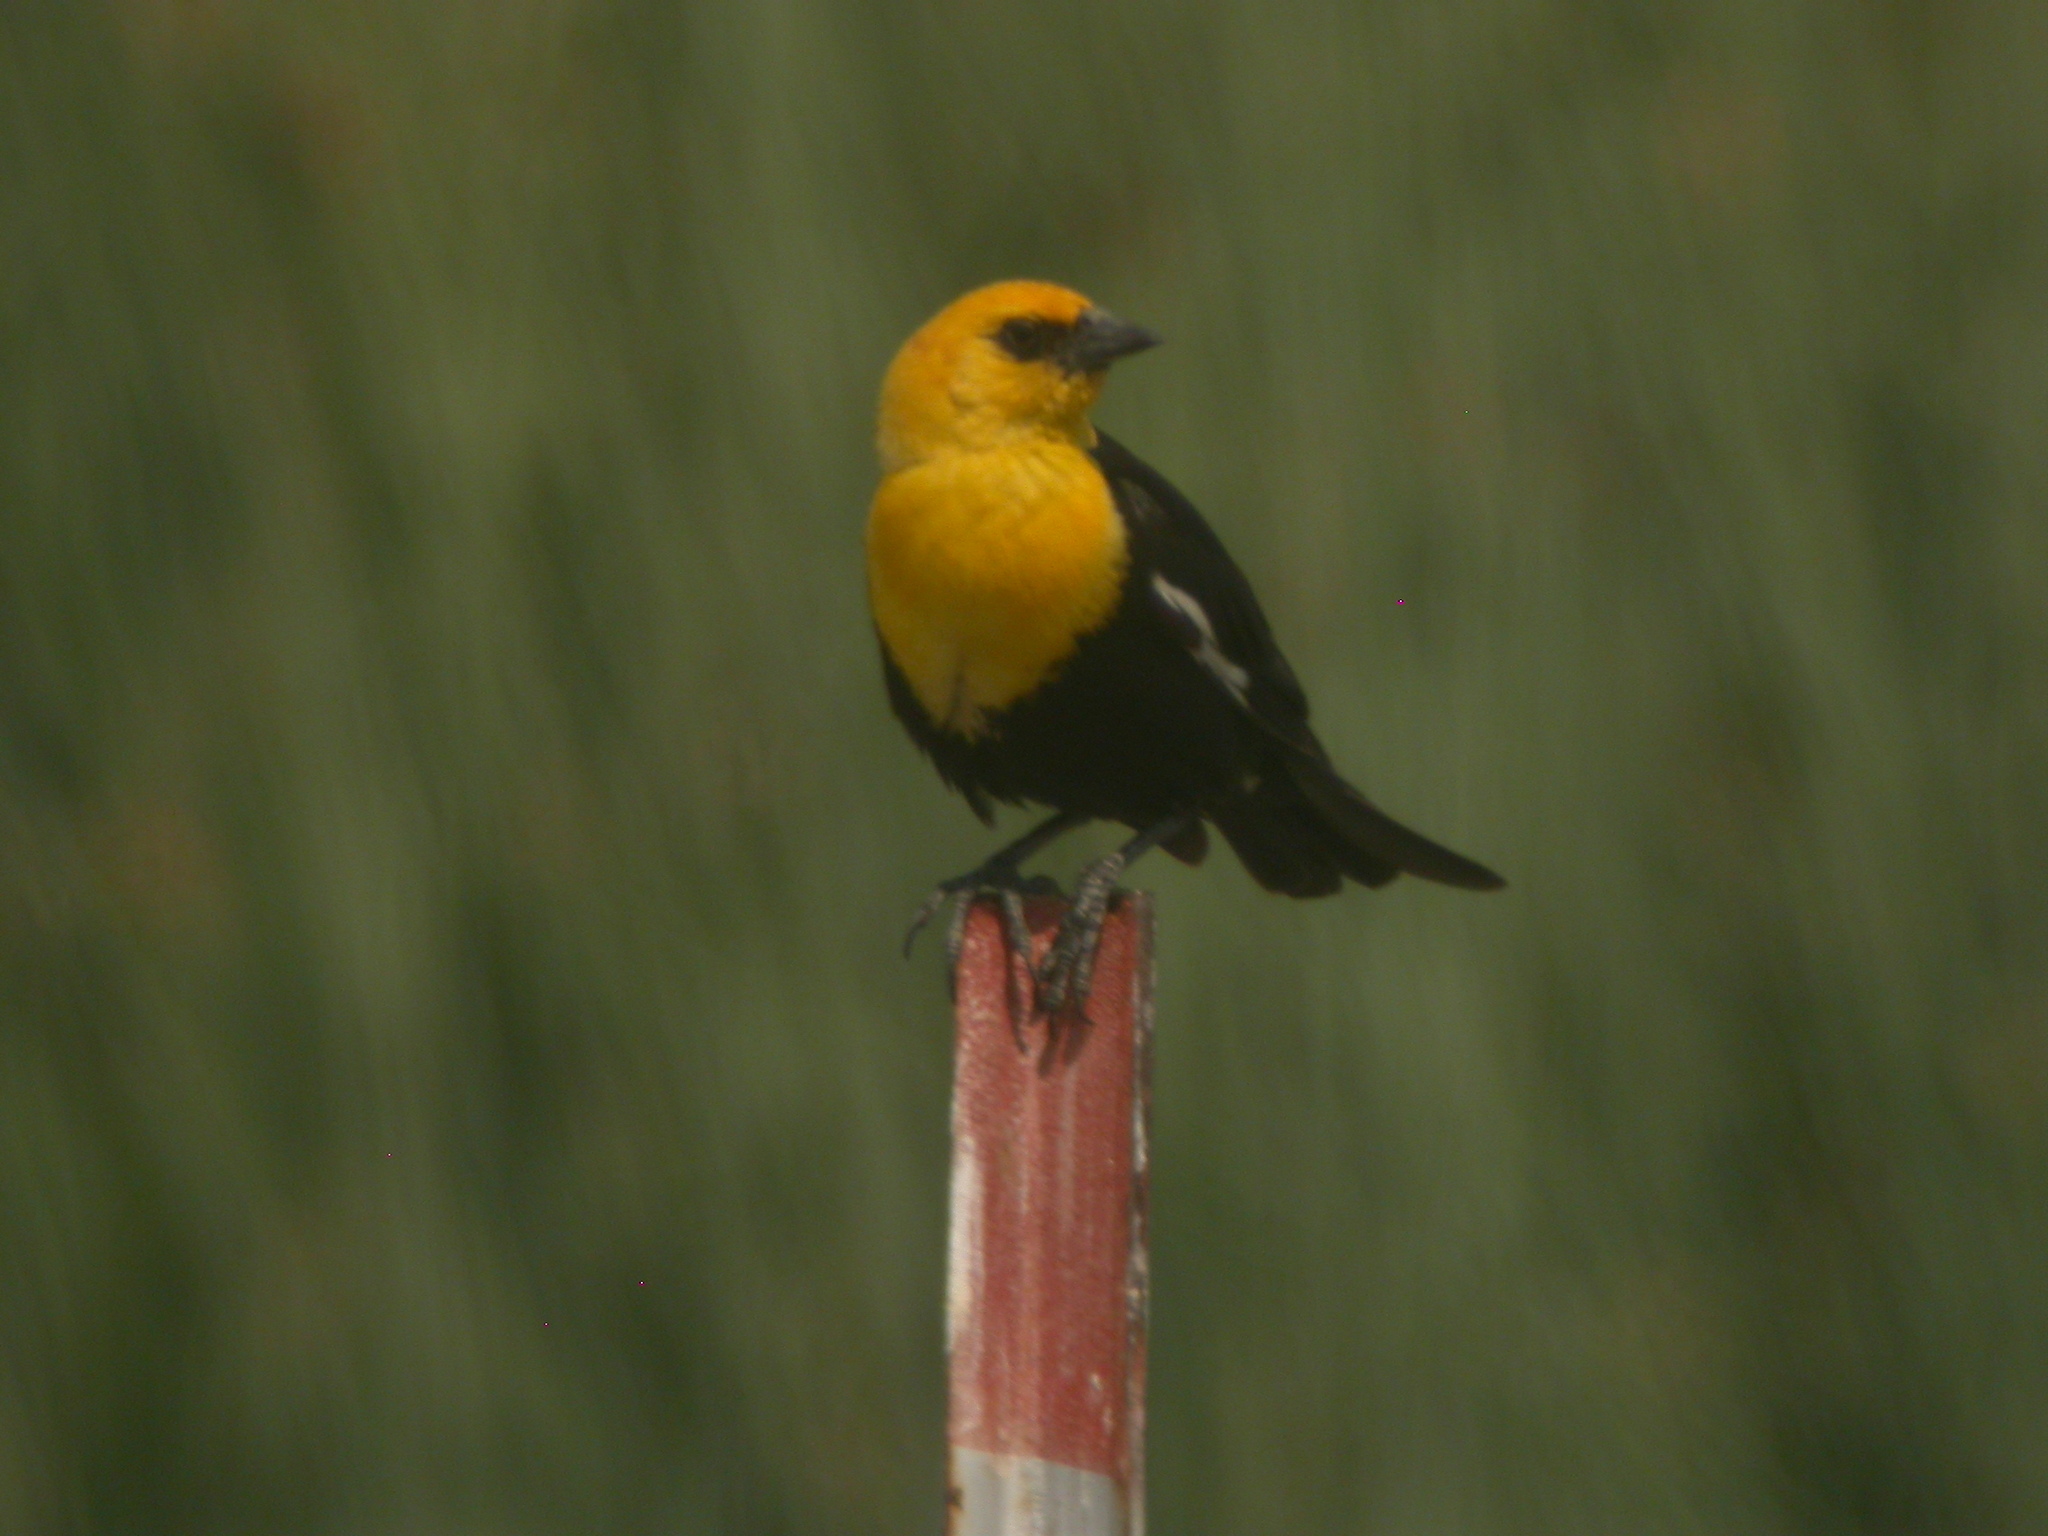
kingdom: Animalia
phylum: Chordata
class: Aves
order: Passeriformes
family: Icteridae
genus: Xanthocephalus
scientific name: Xanthocephalus xanthocephalus
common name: Yellow-headed blackbird
